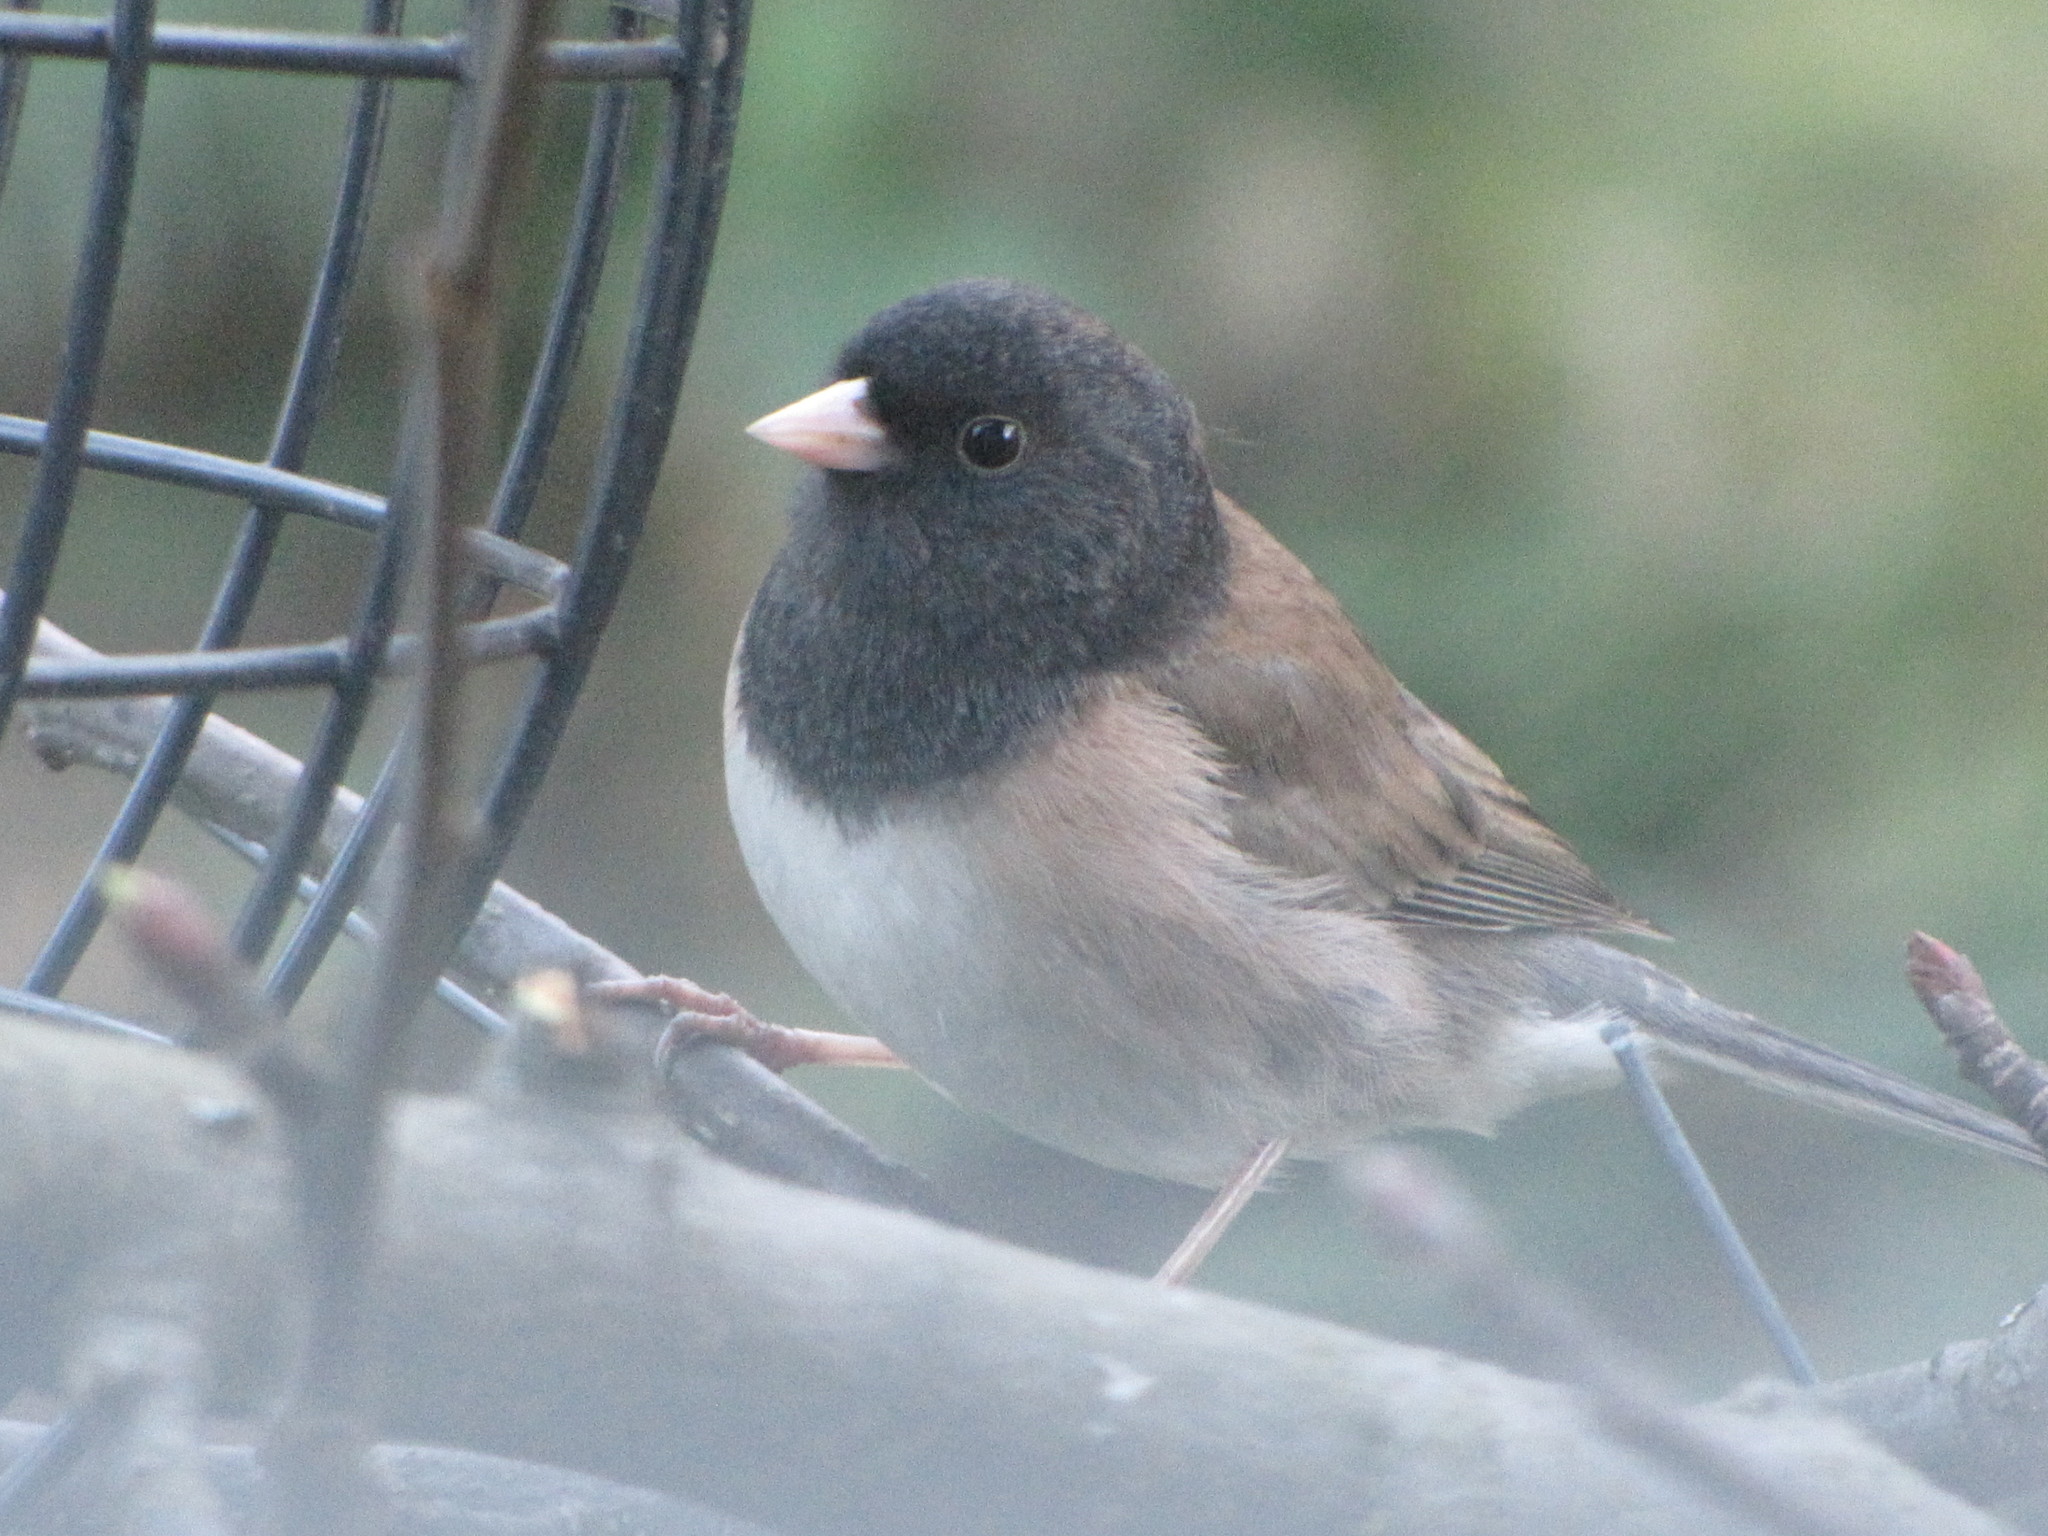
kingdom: Animalia
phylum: Chordata
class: Aves
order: Passeriformes
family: Passerellidae
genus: Junco
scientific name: Junco hyemalis
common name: Dark-eyed junco
